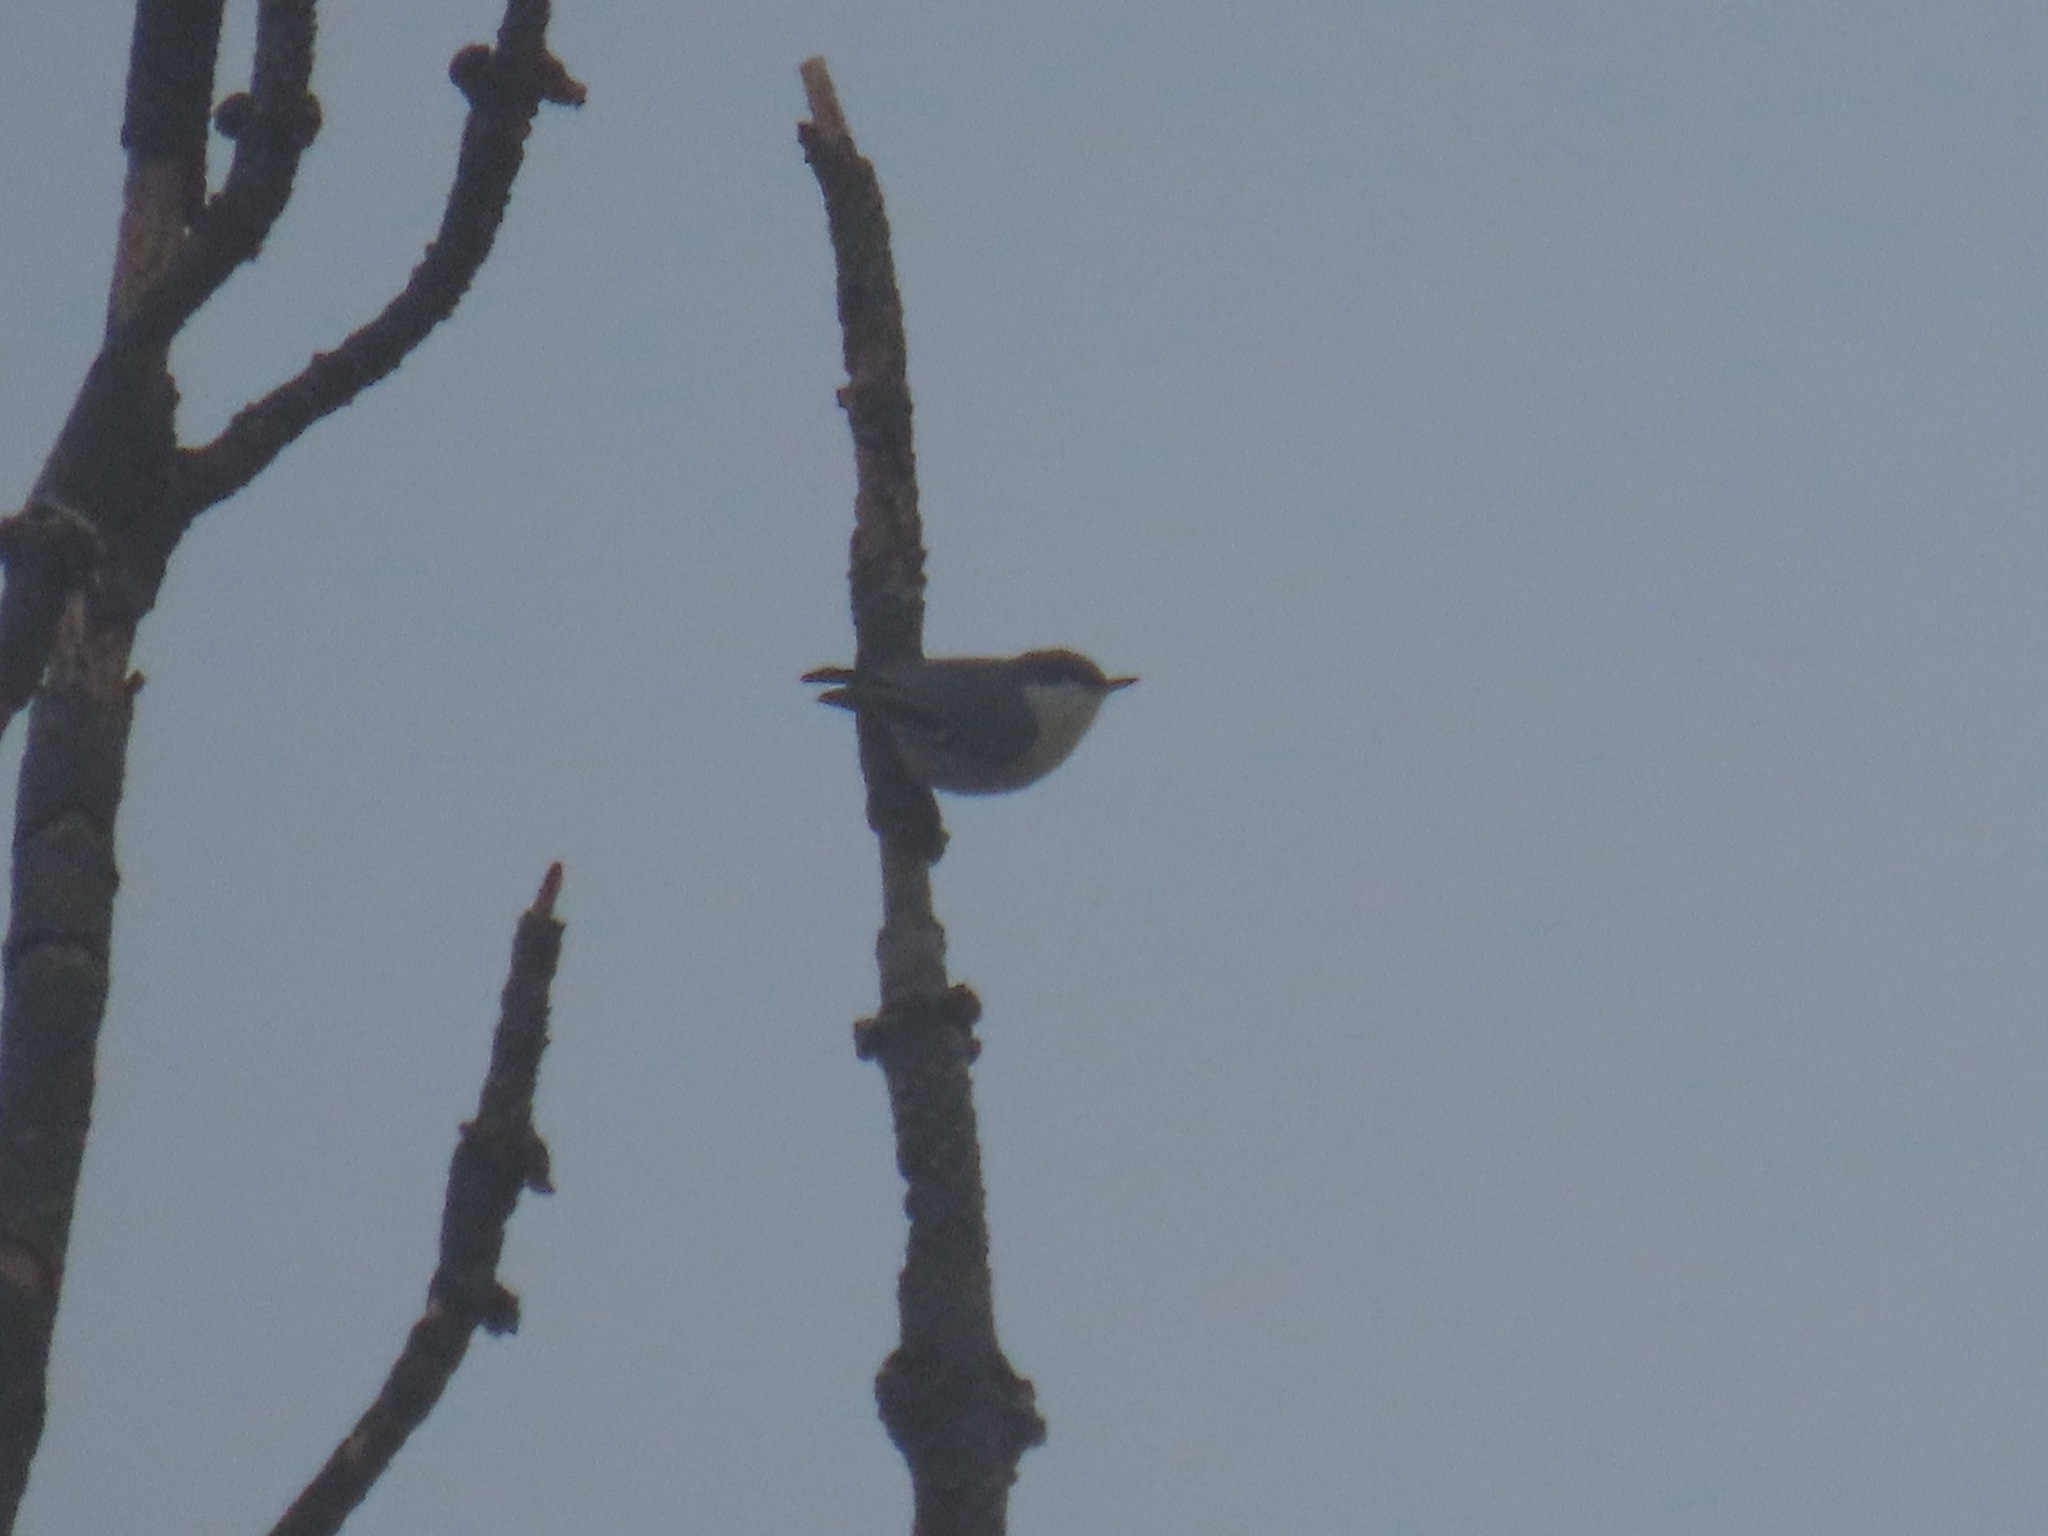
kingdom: Animalia
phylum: Chordata
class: Aves
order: Passeriformes
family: Sittidae
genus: Sitta
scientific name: Sitta pygmaea
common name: Pygmy nuthatch
